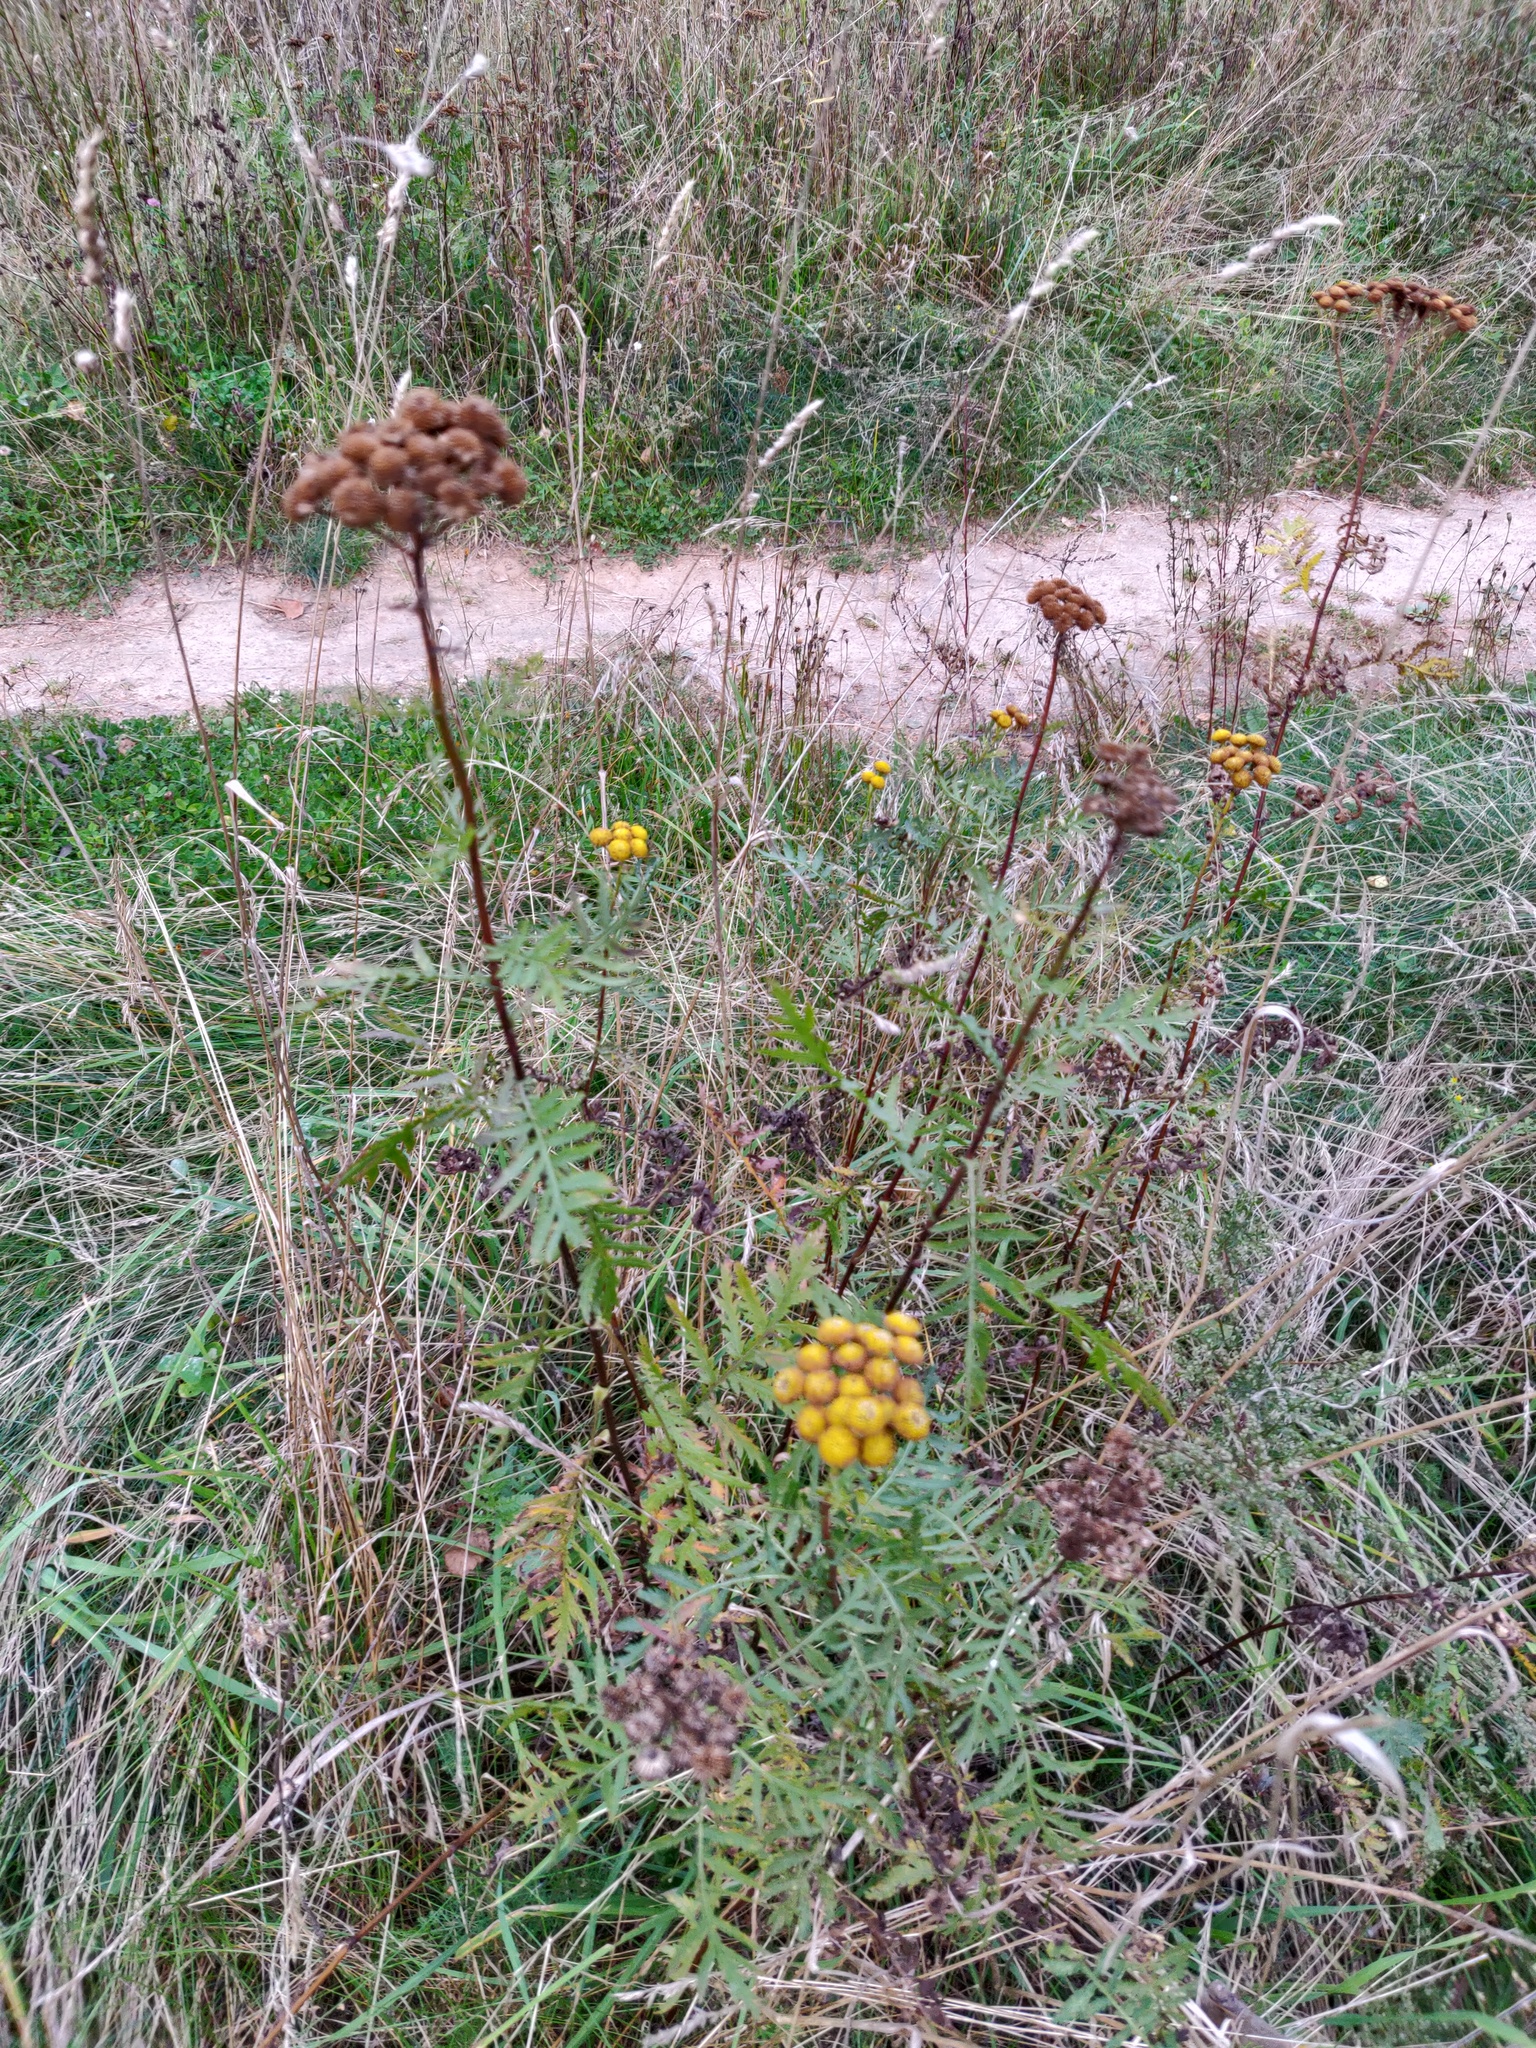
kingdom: Plantae
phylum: Tracheophyta
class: Magnoliopsida
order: Asterales
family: Asteraceae
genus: Tanacetum
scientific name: Tanacetum vulgare
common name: Common tansy
